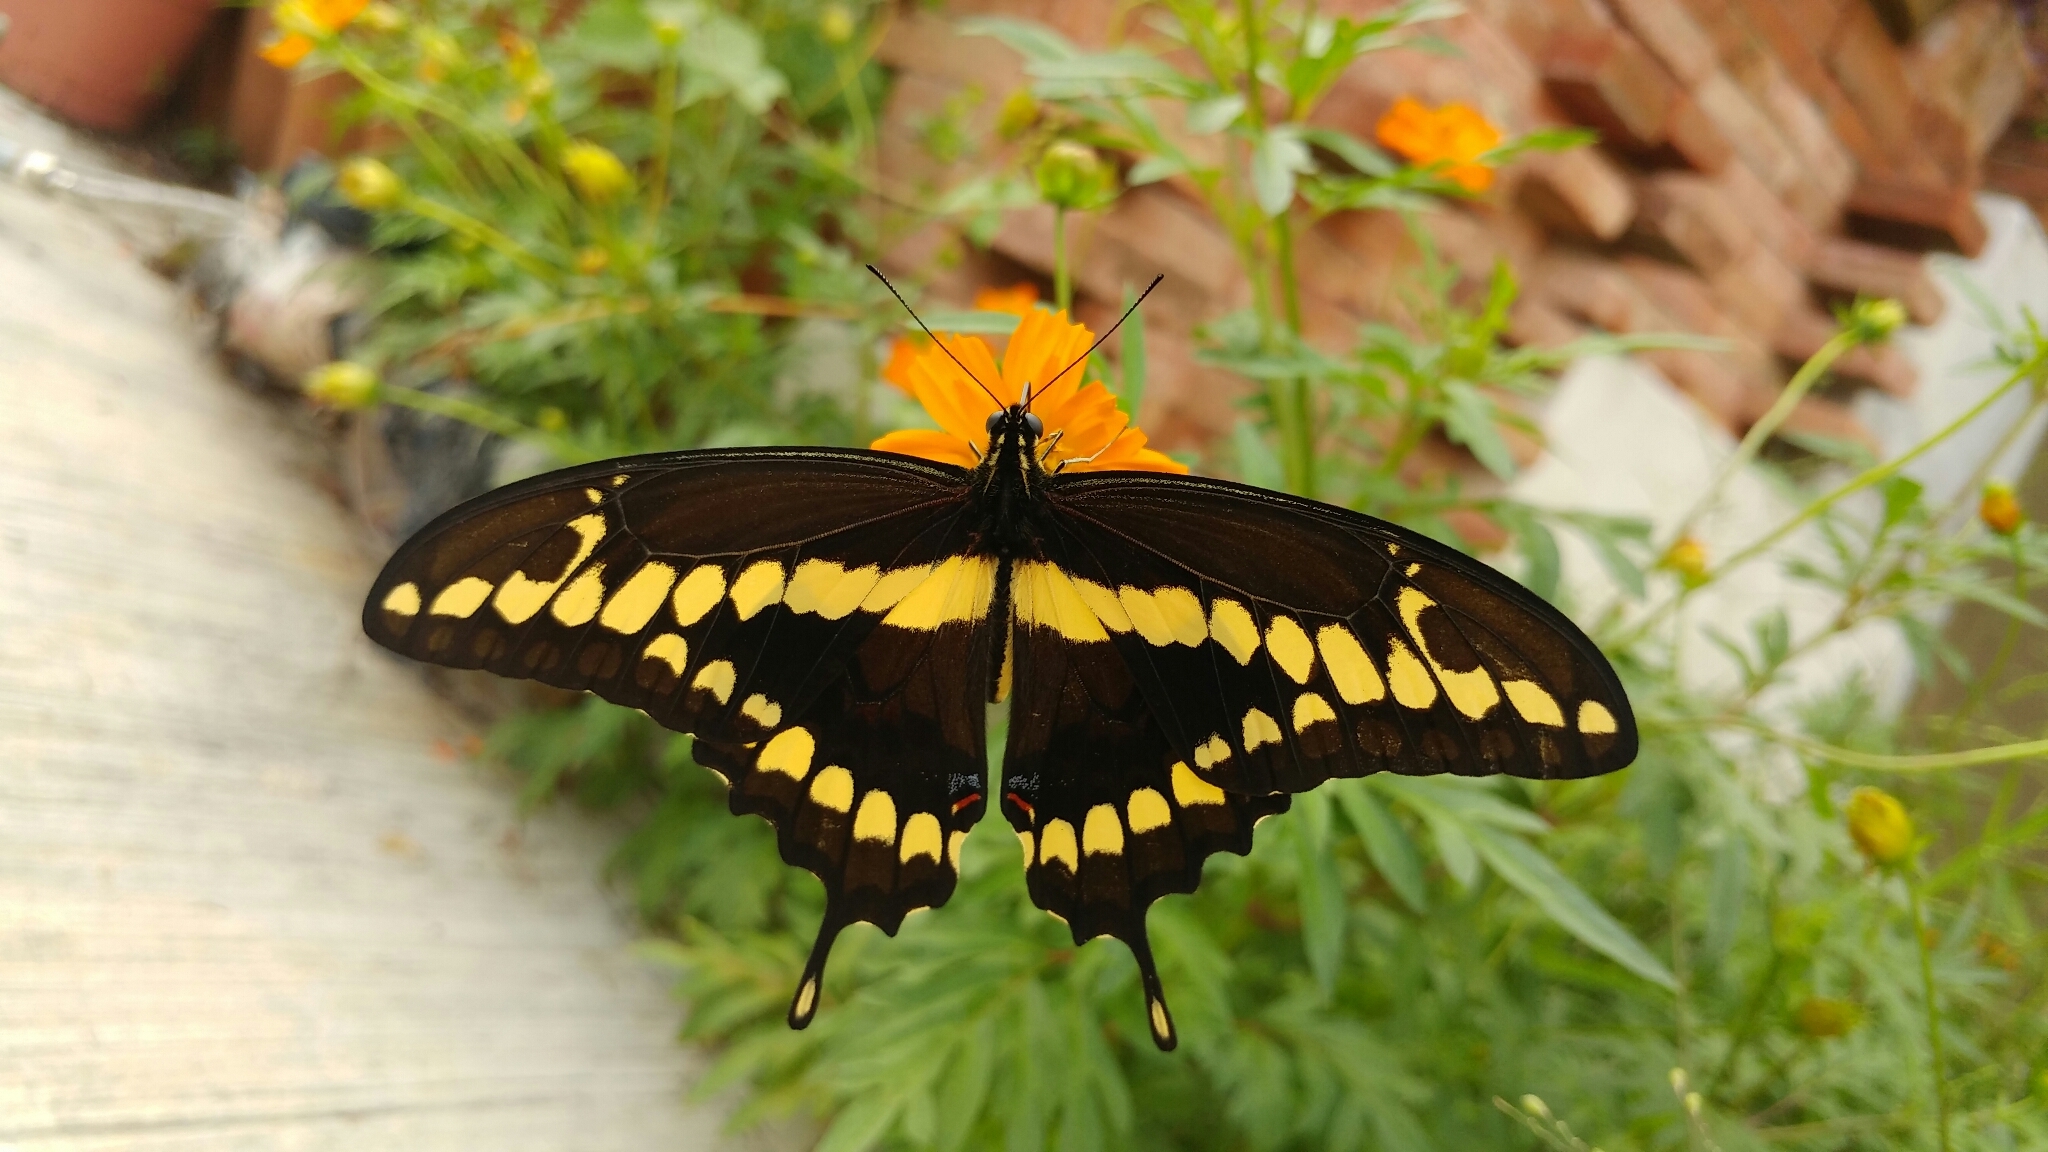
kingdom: Animalia
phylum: Arthropoda
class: Insecta
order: Lepidoptera
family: Papilionidae
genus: Papilio
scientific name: Papilio rumiko
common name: Western giant swallowtail
